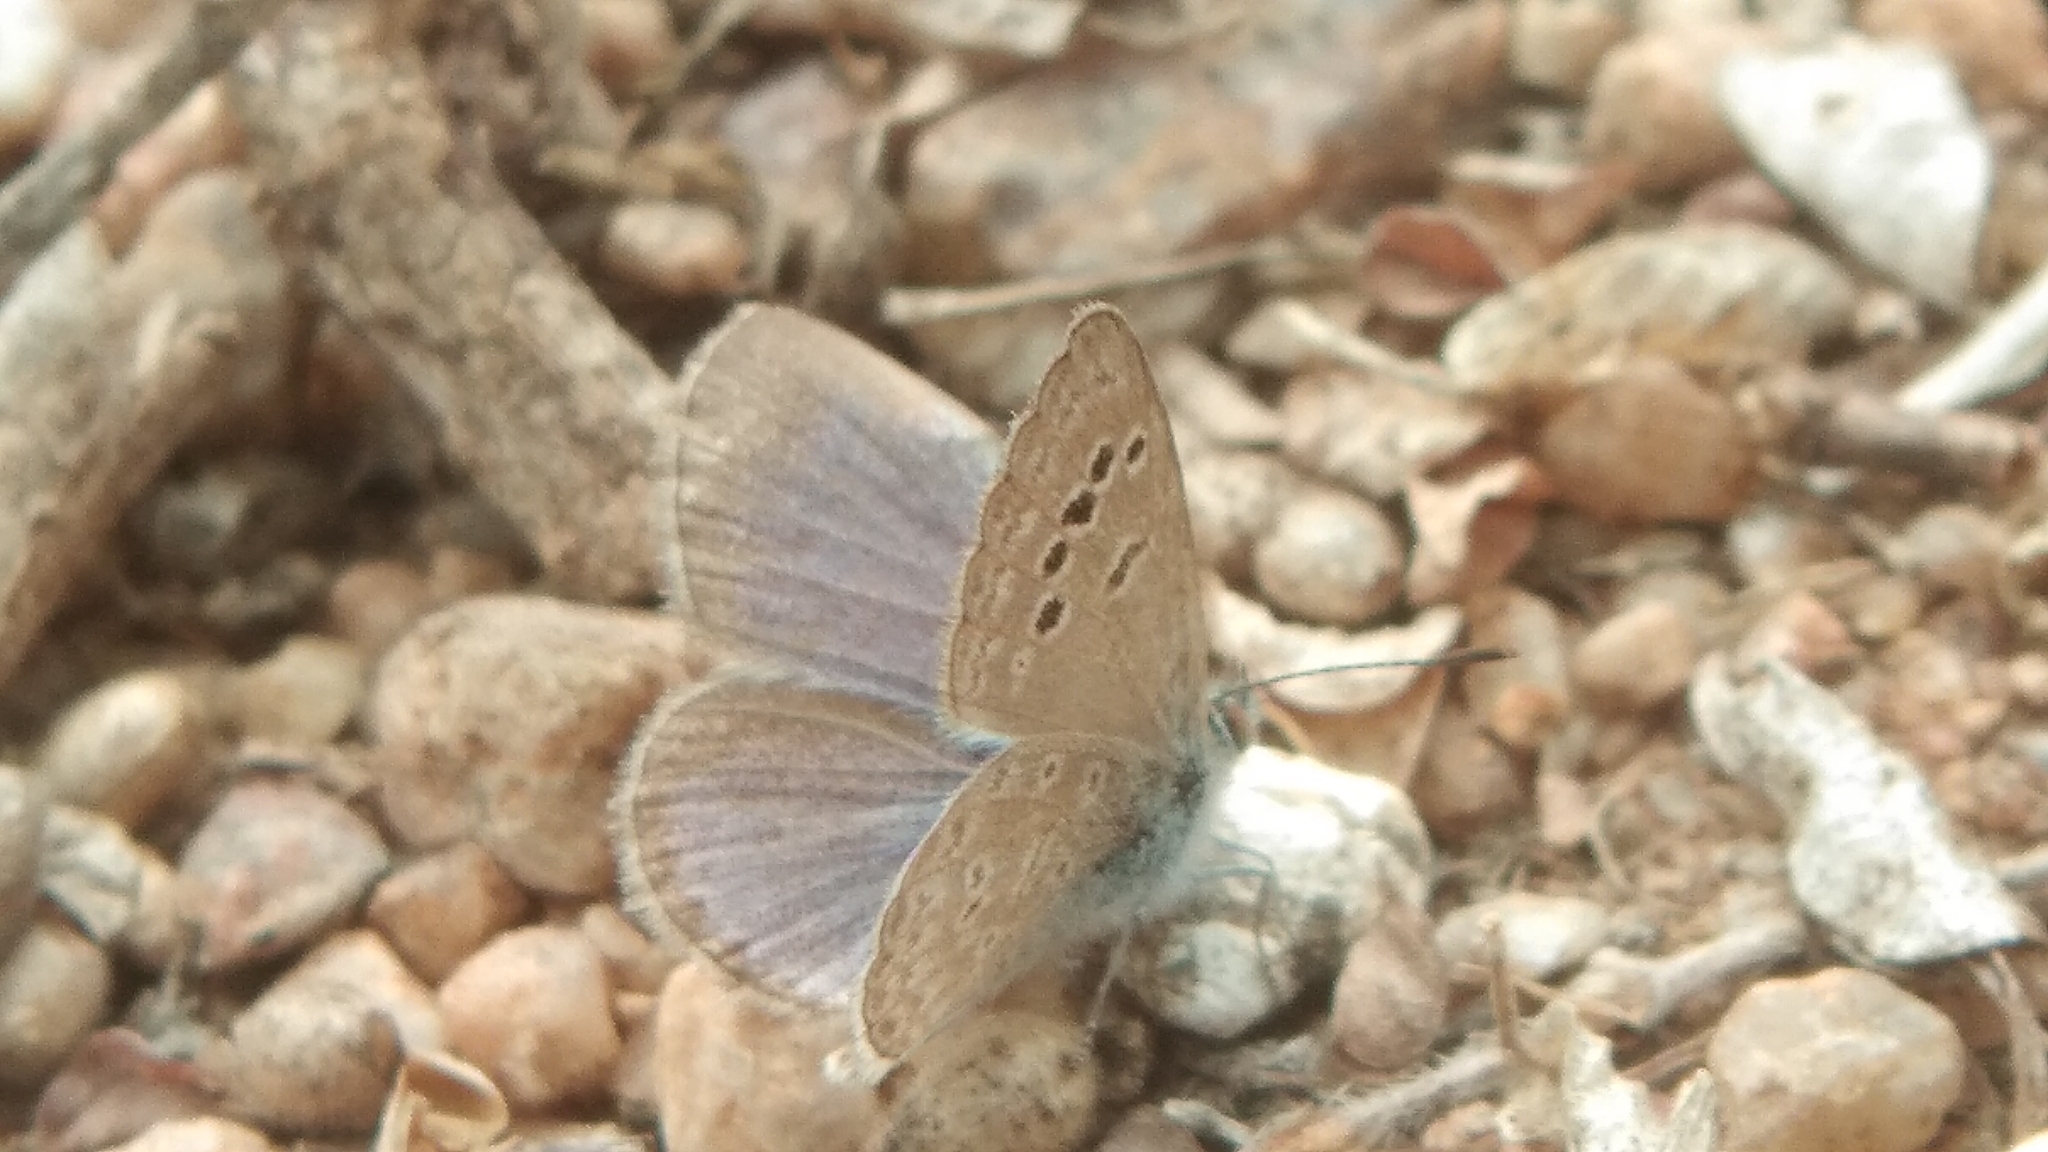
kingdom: Animalia
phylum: Arthropoda
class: Insecta
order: Lepidoptera
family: Lycaenidae
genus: Zizina
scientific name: Zizina otis
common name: Lesser grass blue
